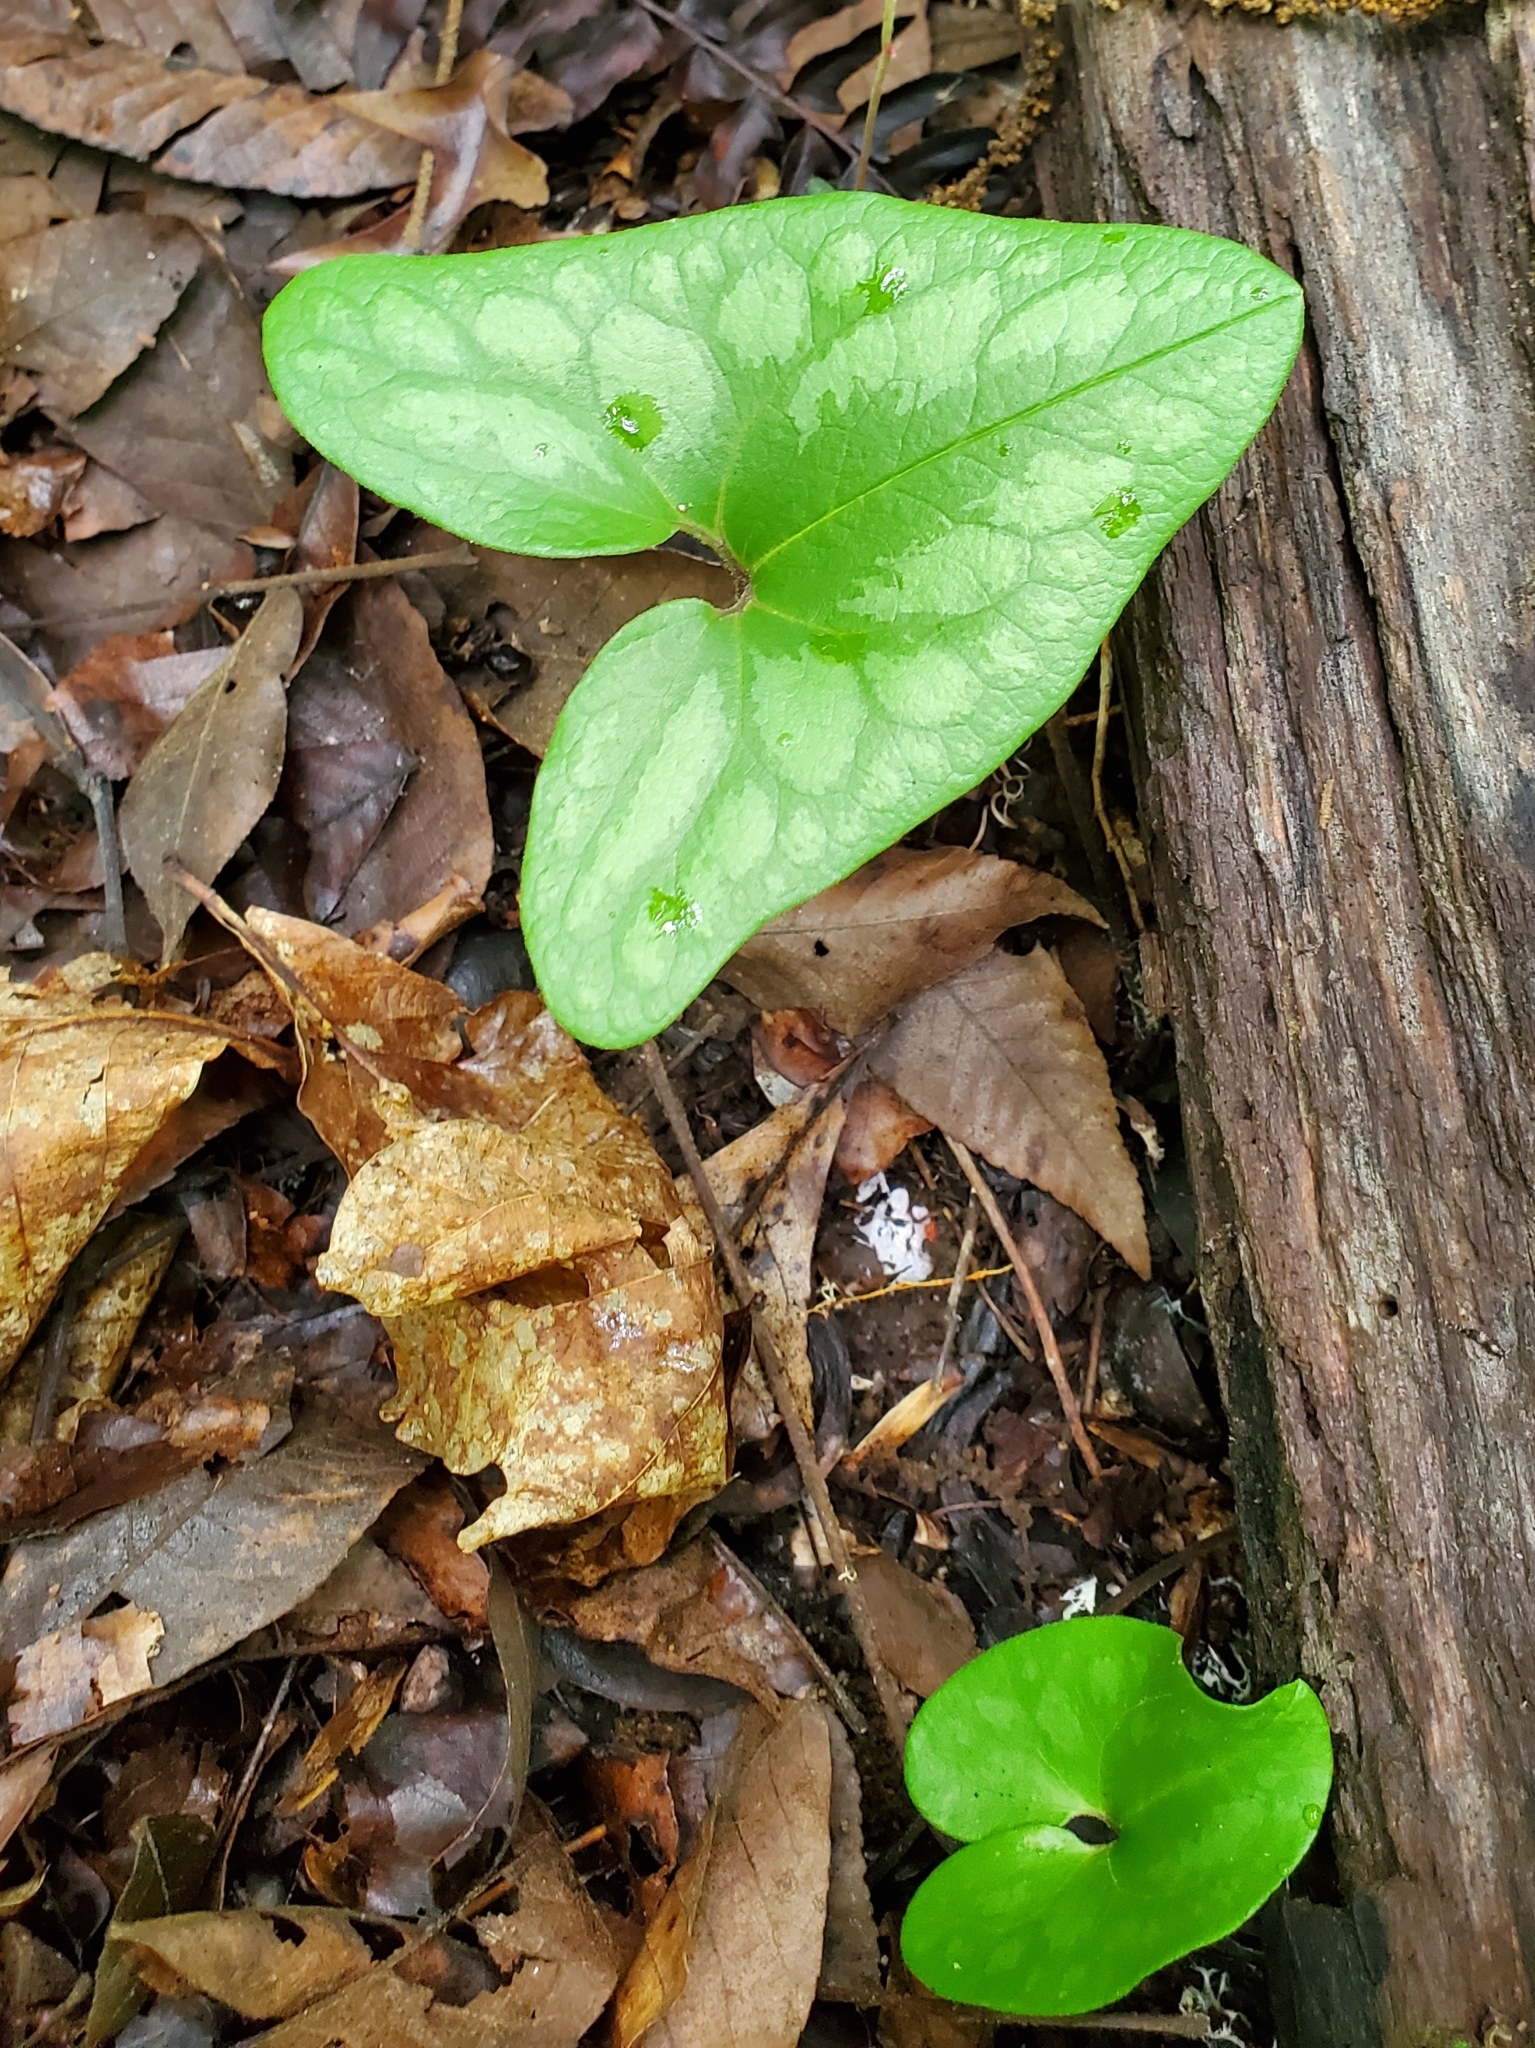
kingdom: Plantae
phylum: Tracheophyta
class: Magnoliopsida
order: Piperales
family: Aristolochiaceae
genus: Hexastylis
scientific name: Hexastylis arifolia
